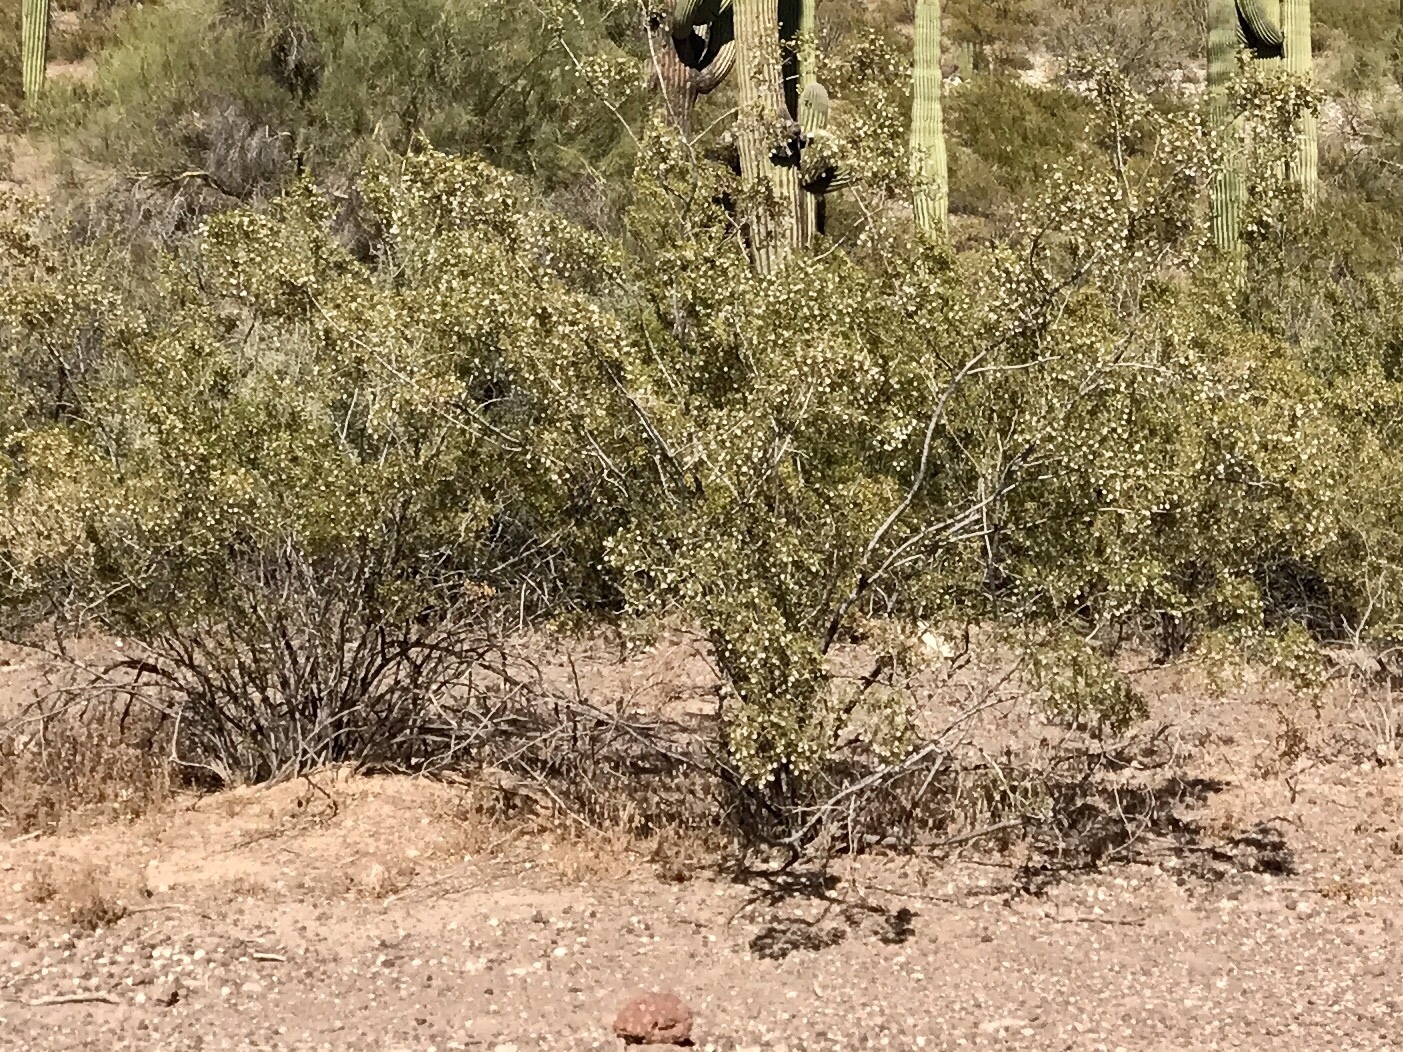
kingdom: Plantae
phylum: Tracheophyta
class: Magnoliopsida
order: Zygophyllales
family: Zygophyllaceae
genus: Larrea
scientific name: Larrea tridentata
